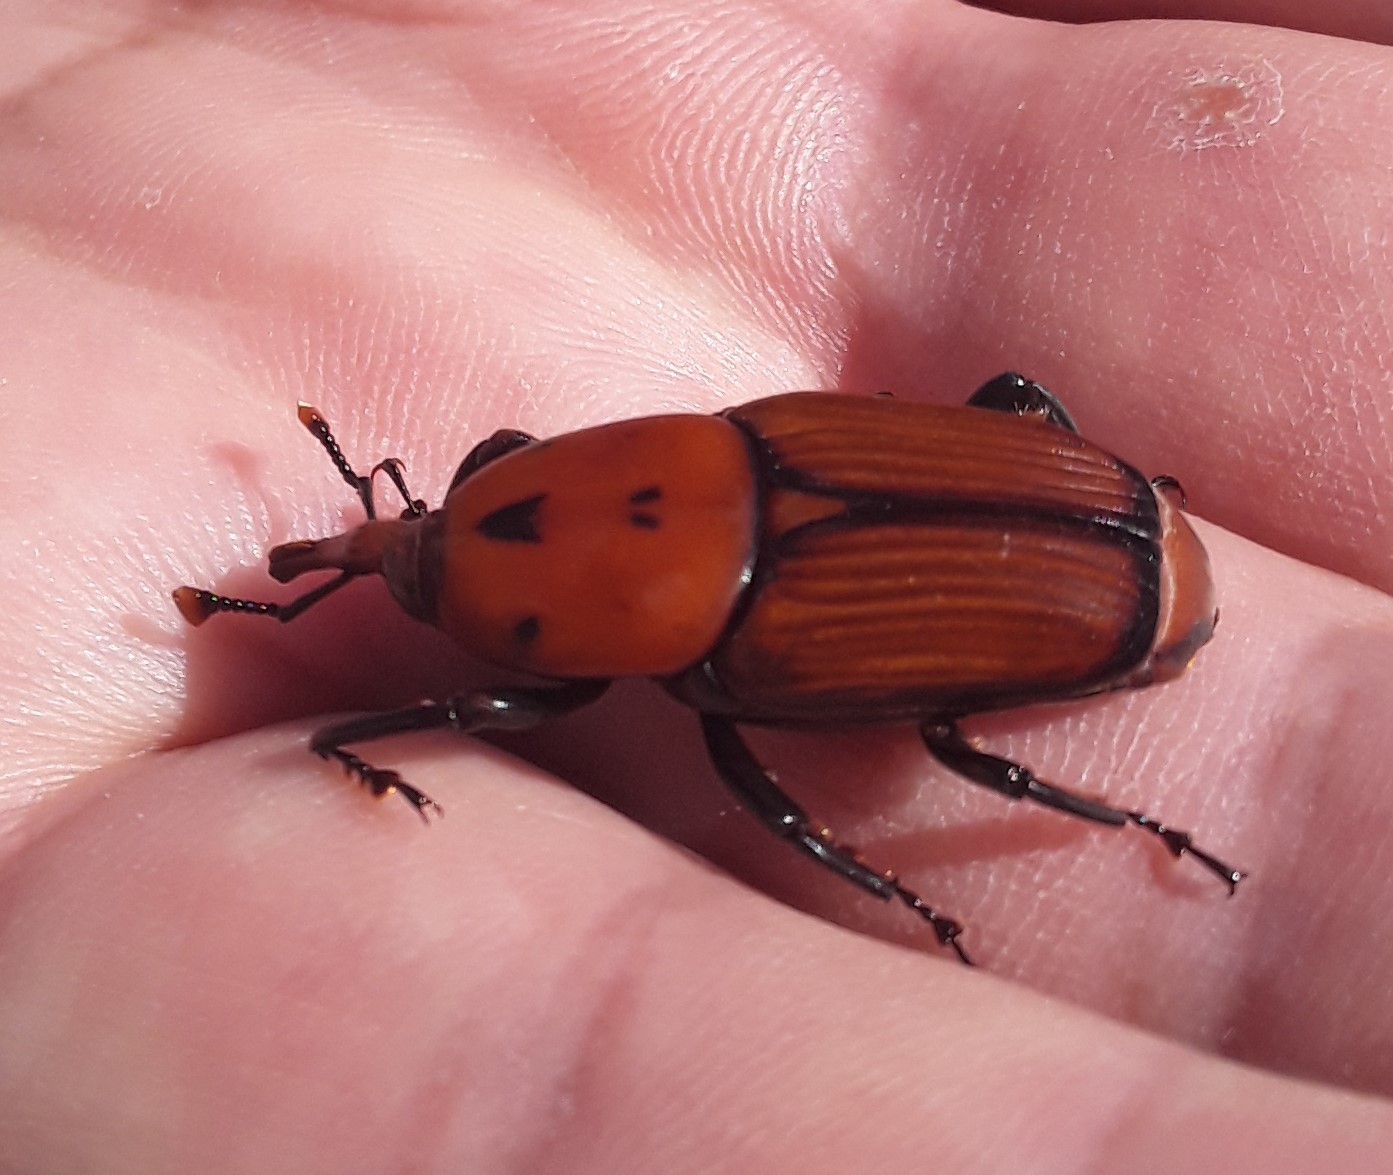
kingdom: Animalia
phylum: Arthropoda
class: Insecta
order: Coleoptera
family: Dryophthoridae
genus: Rhynchophorus
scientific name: Rhynchophorus ferrugineus
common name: Red palm weevil
